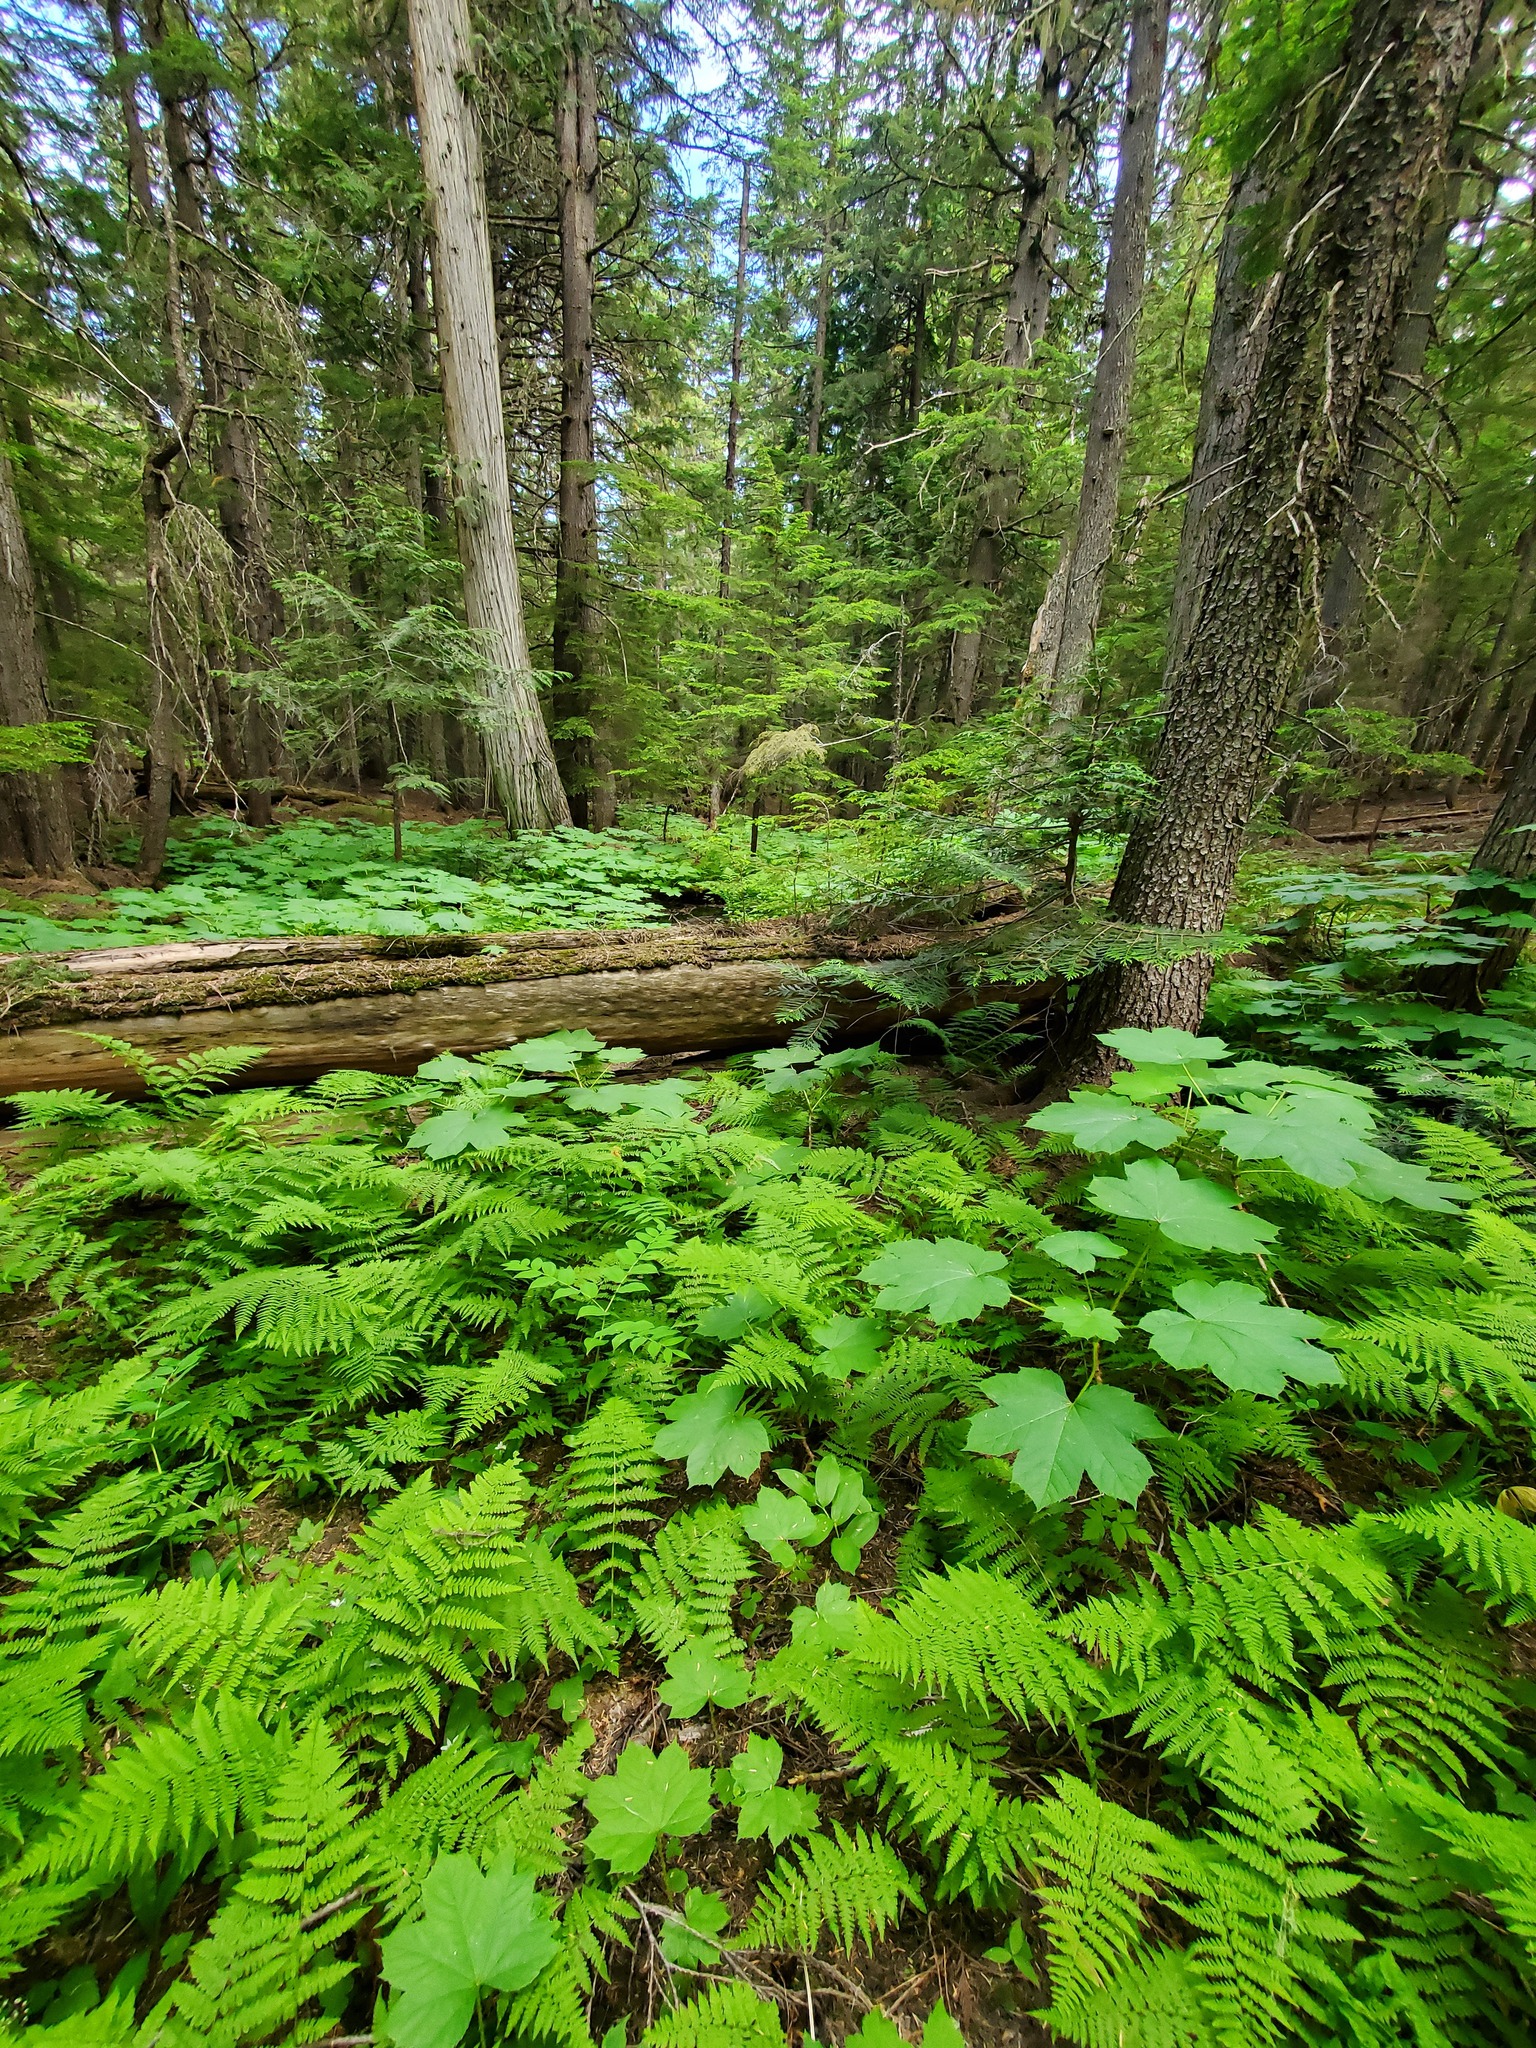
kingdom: Plantae
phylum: Tracheophyta
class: Magnoliopsida
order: Apiales
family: Araliaceae
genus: Oplopanax
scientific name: Oplopanax horridus
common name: Devil's walking-stick
